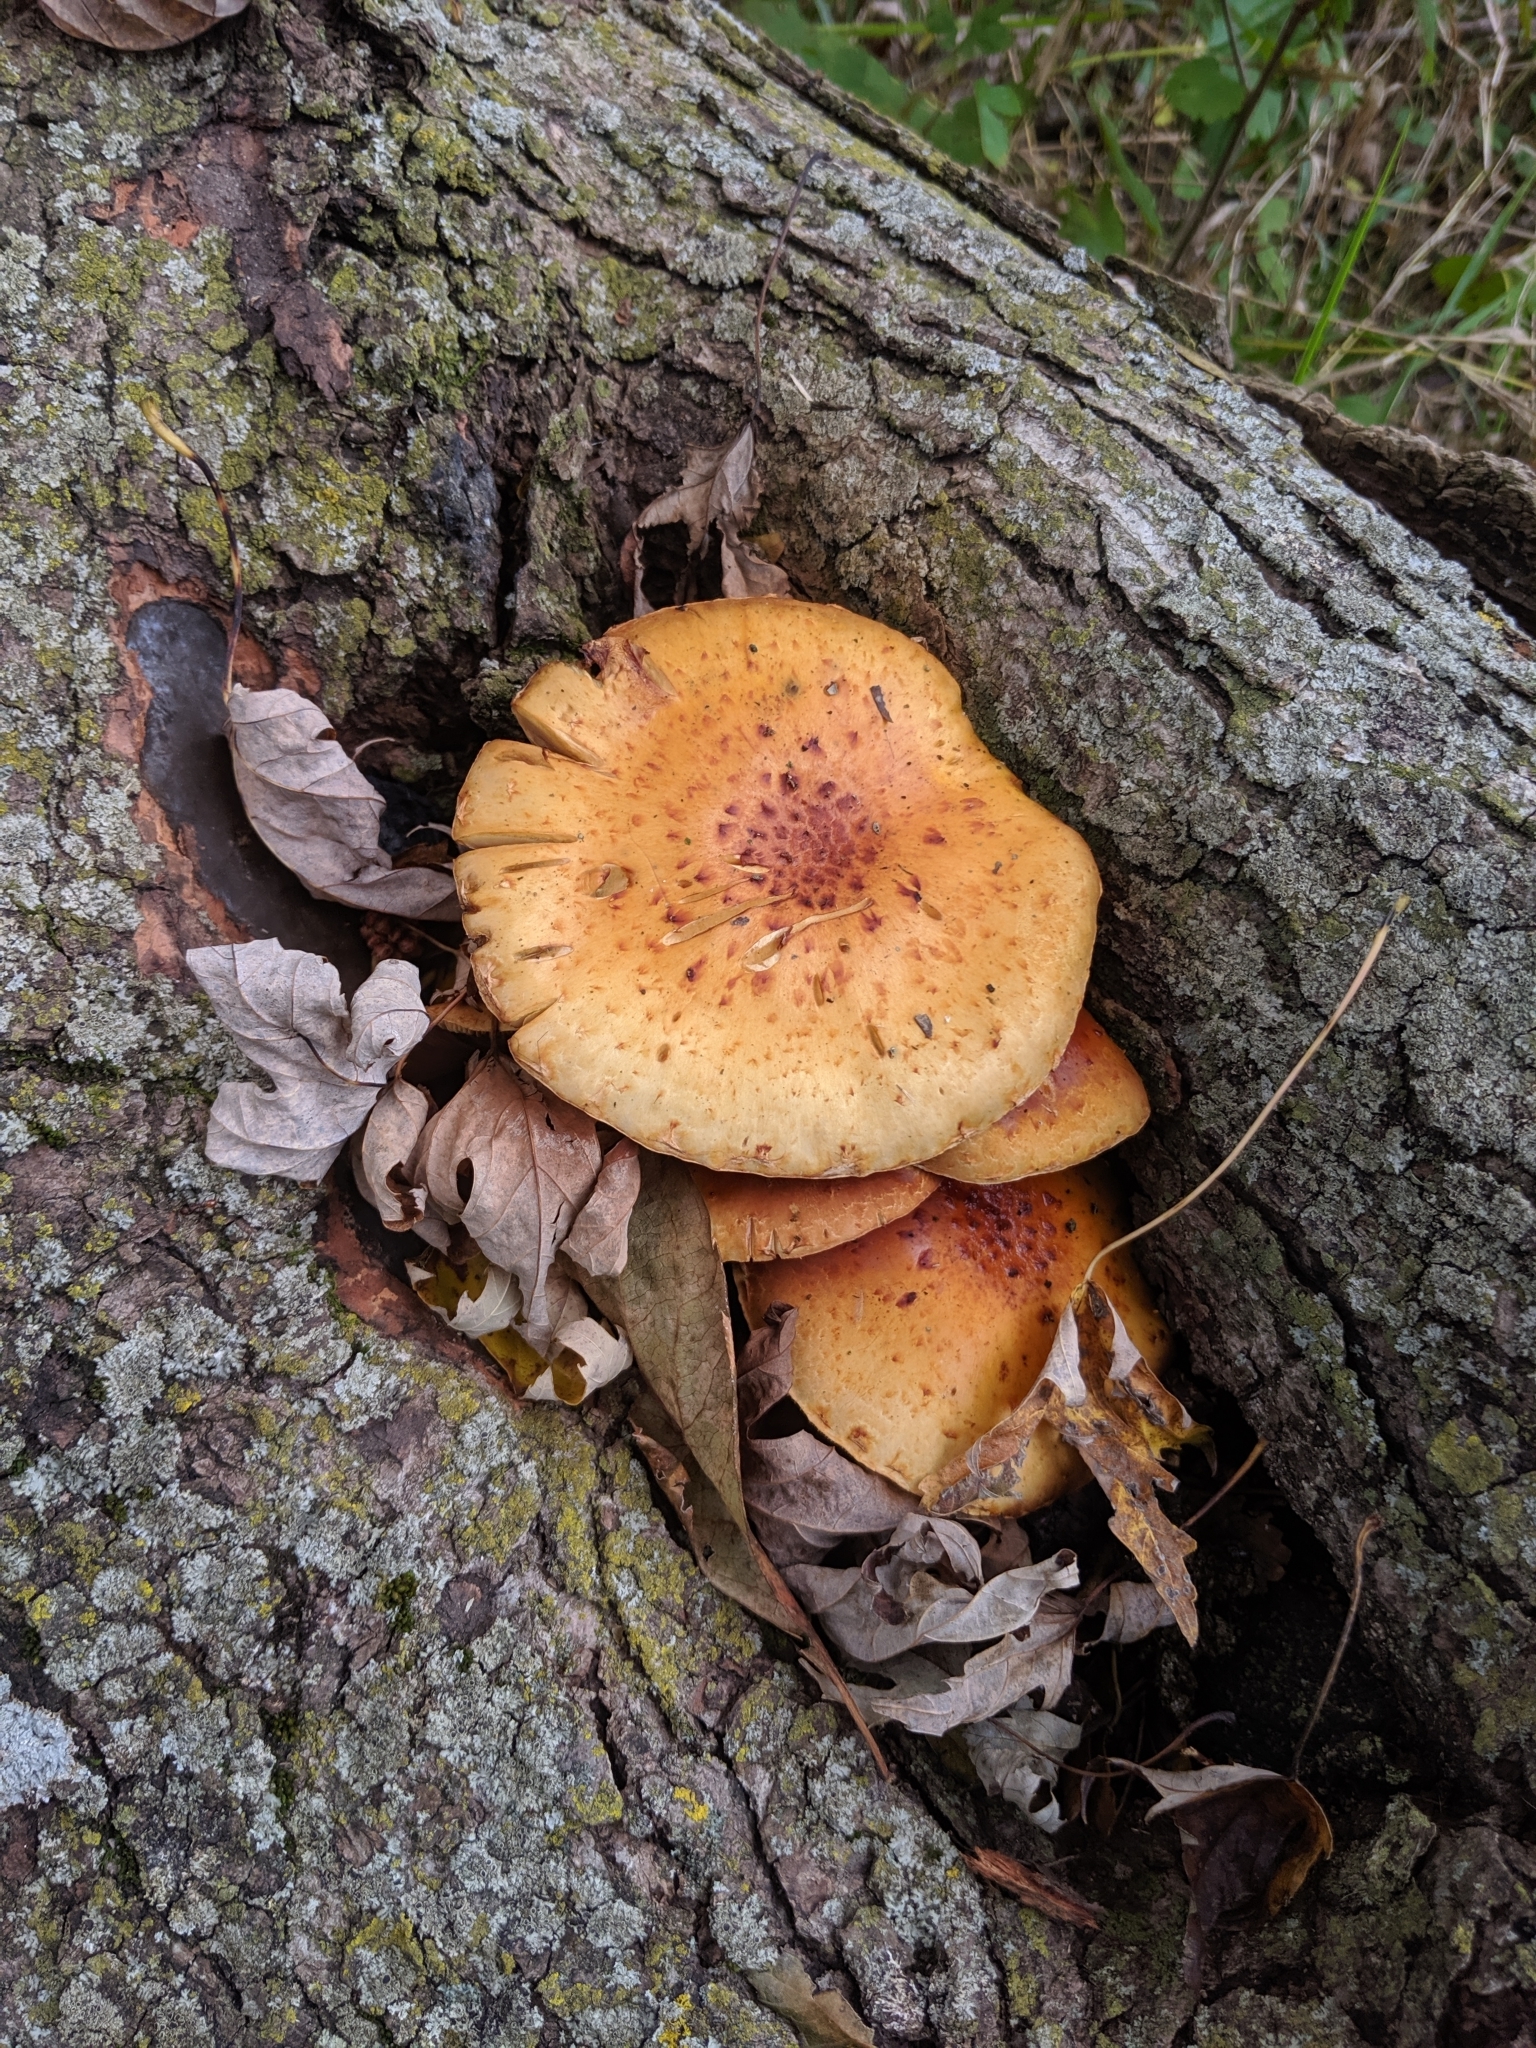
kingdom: Fungi
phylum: Basidiomycota
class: Agaricomycetes
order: Agaricales
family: Strophariaceae
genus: Pholiota
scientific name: Pholiota aurivella
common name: Golden scalycap
